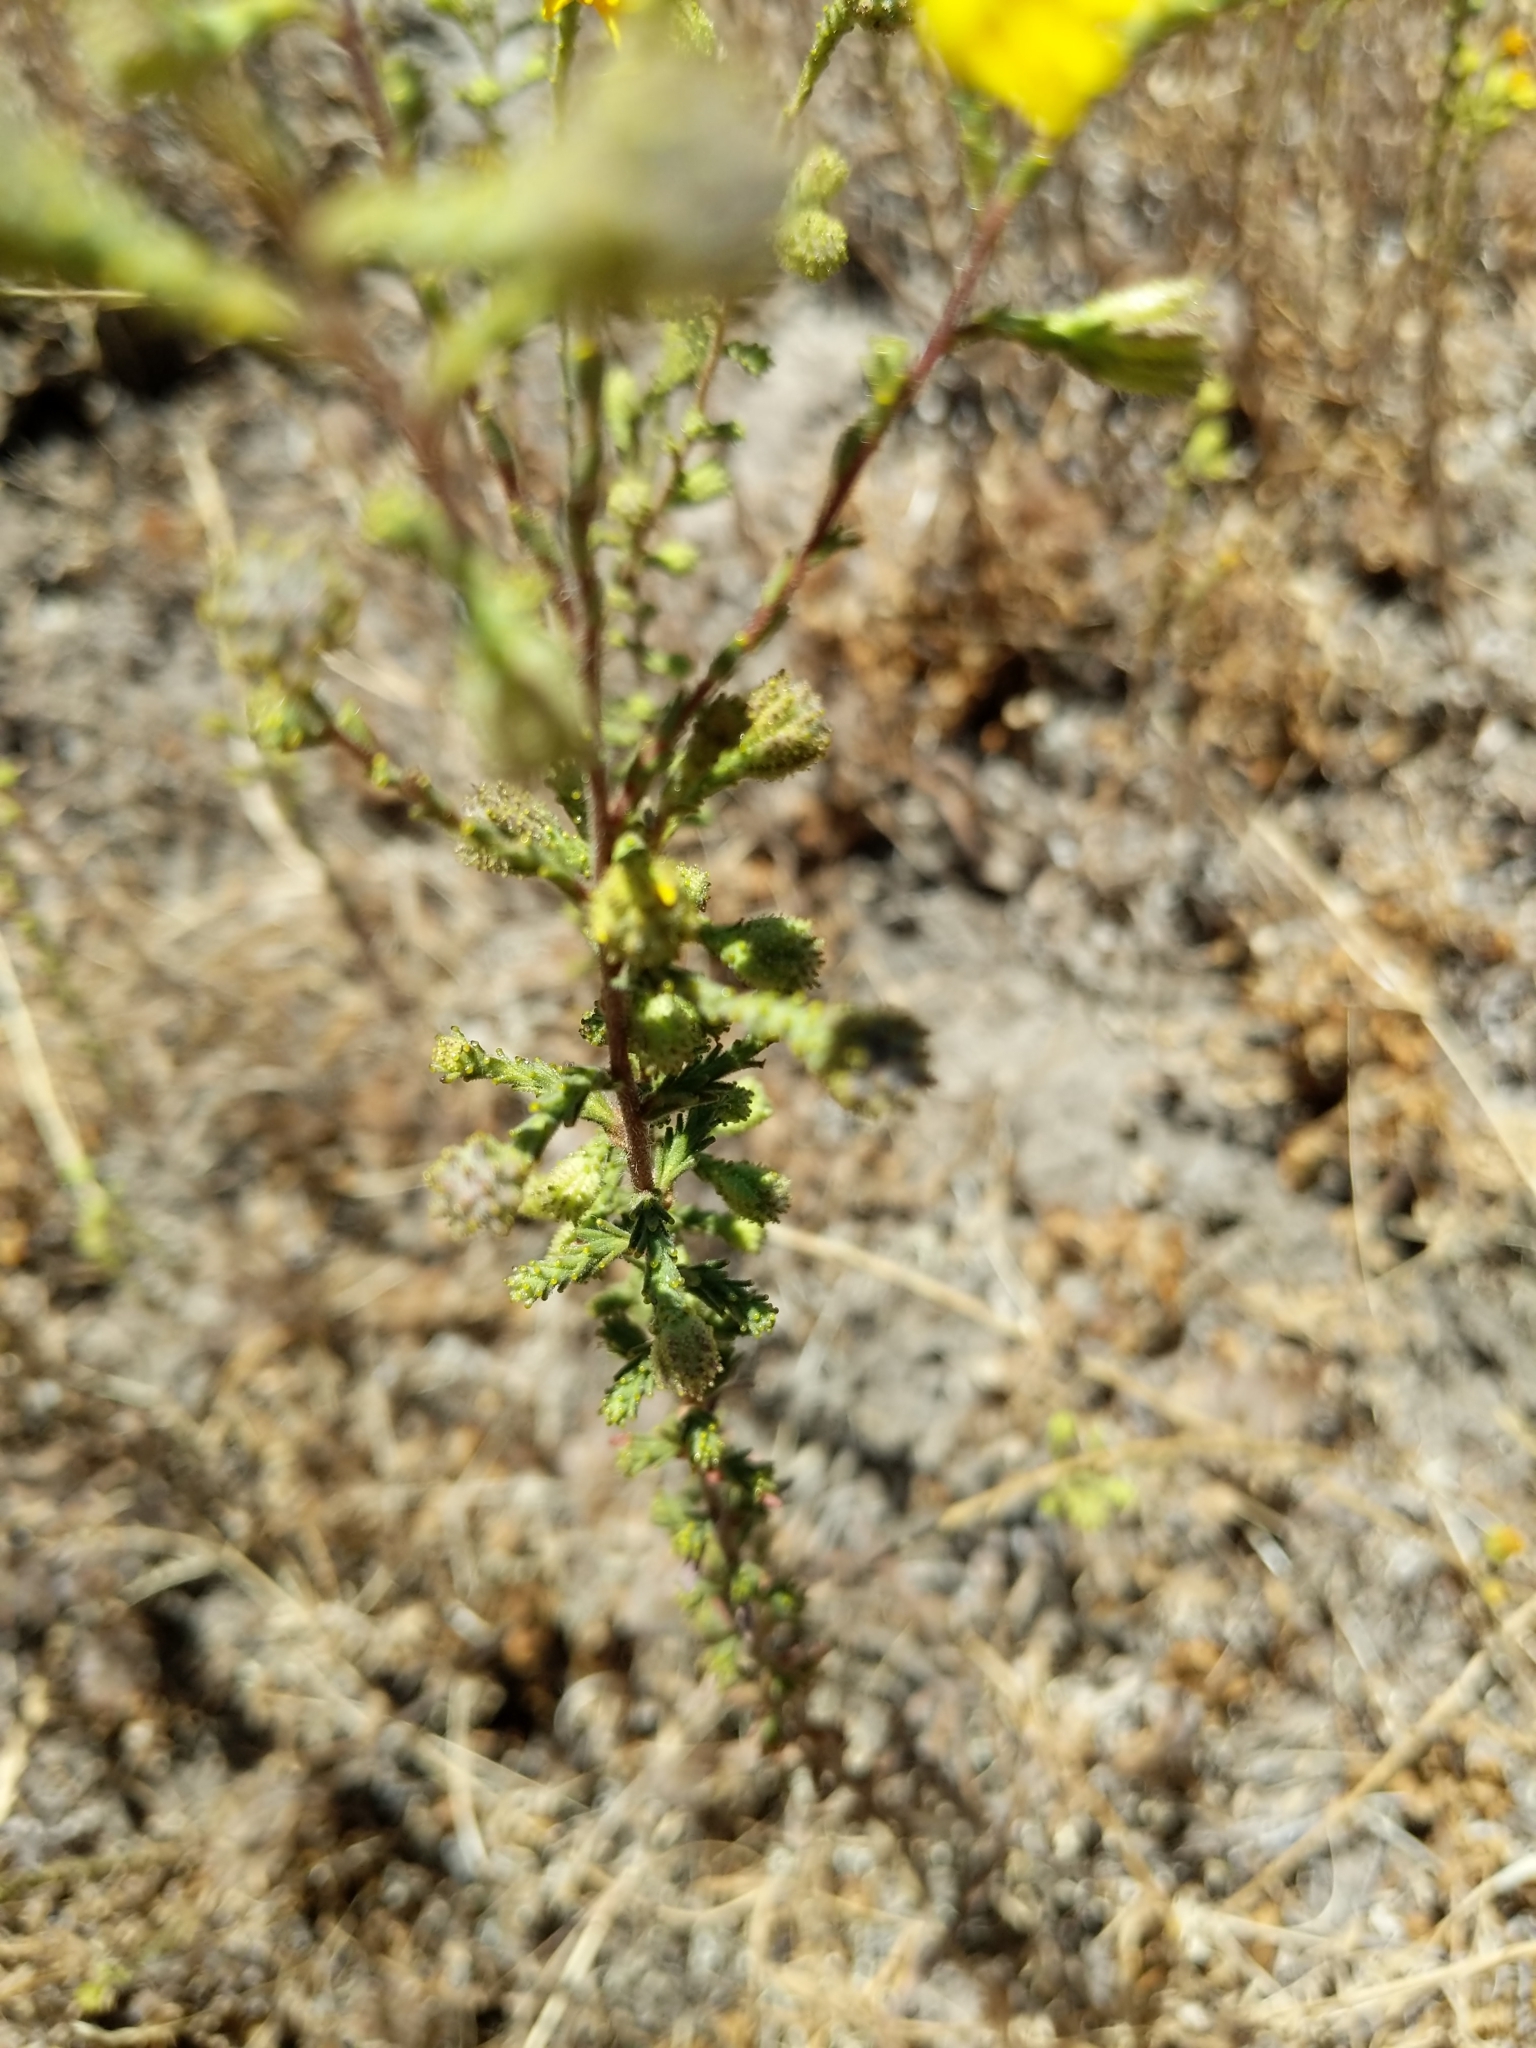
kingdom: Plantae
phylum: Tracheophyta
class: Magnoliopsida
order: Asterales
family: Asteraceae
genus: Holocarpha
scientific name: Holocarpha heermannii
